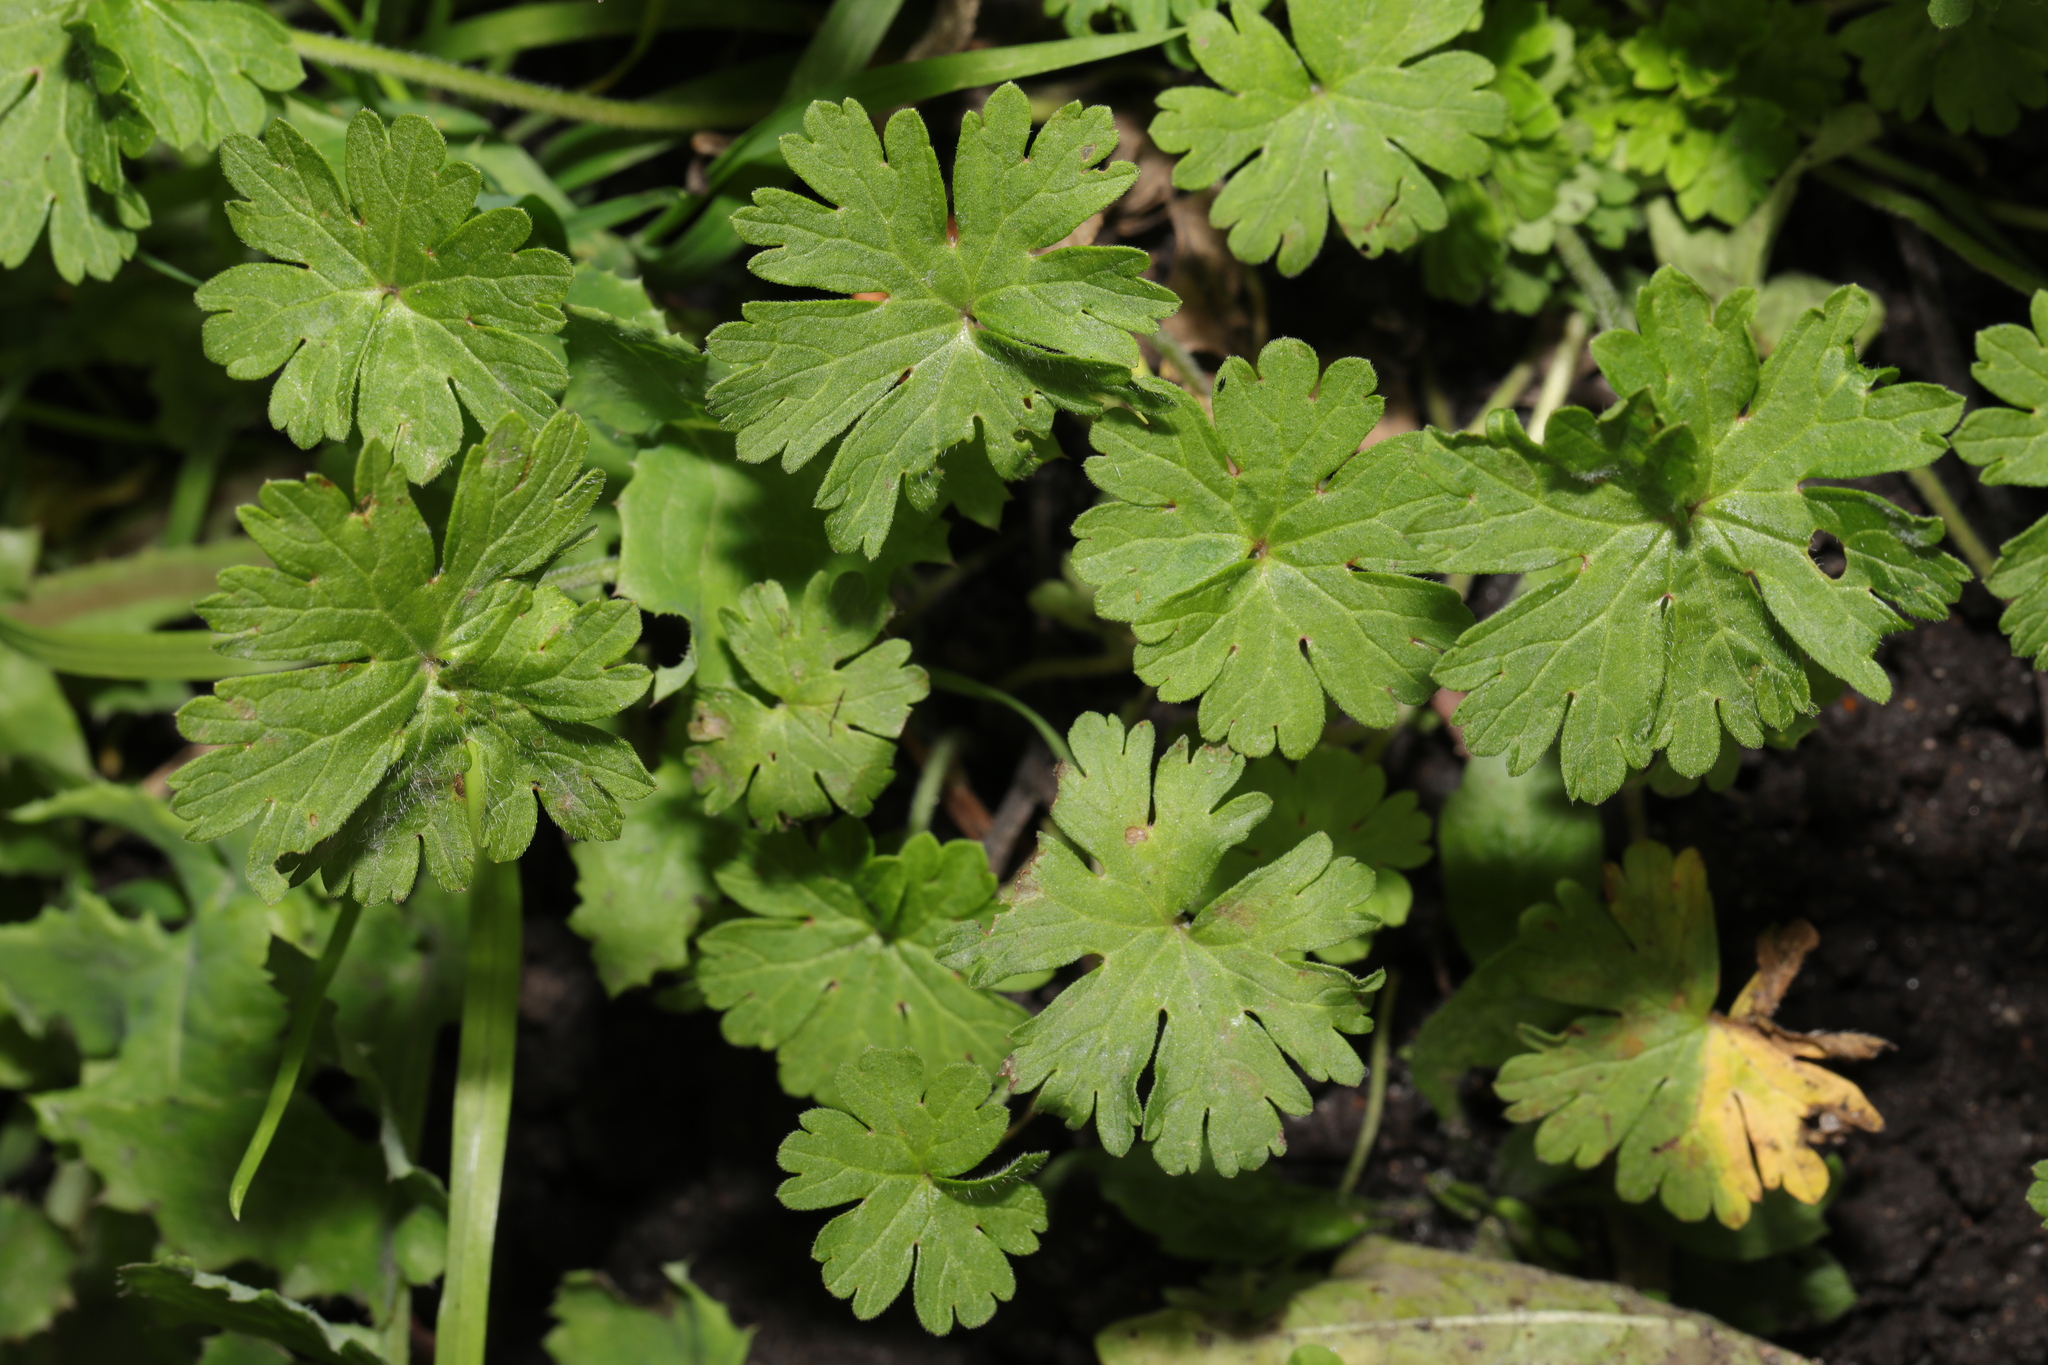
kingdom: Plantae
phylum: Tracheophyta
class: Magnoliopsida
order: Geraniales
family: Geraniaceae
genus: Geranium
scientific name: Geranium molle
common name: Dove's-foot crane's-bill
